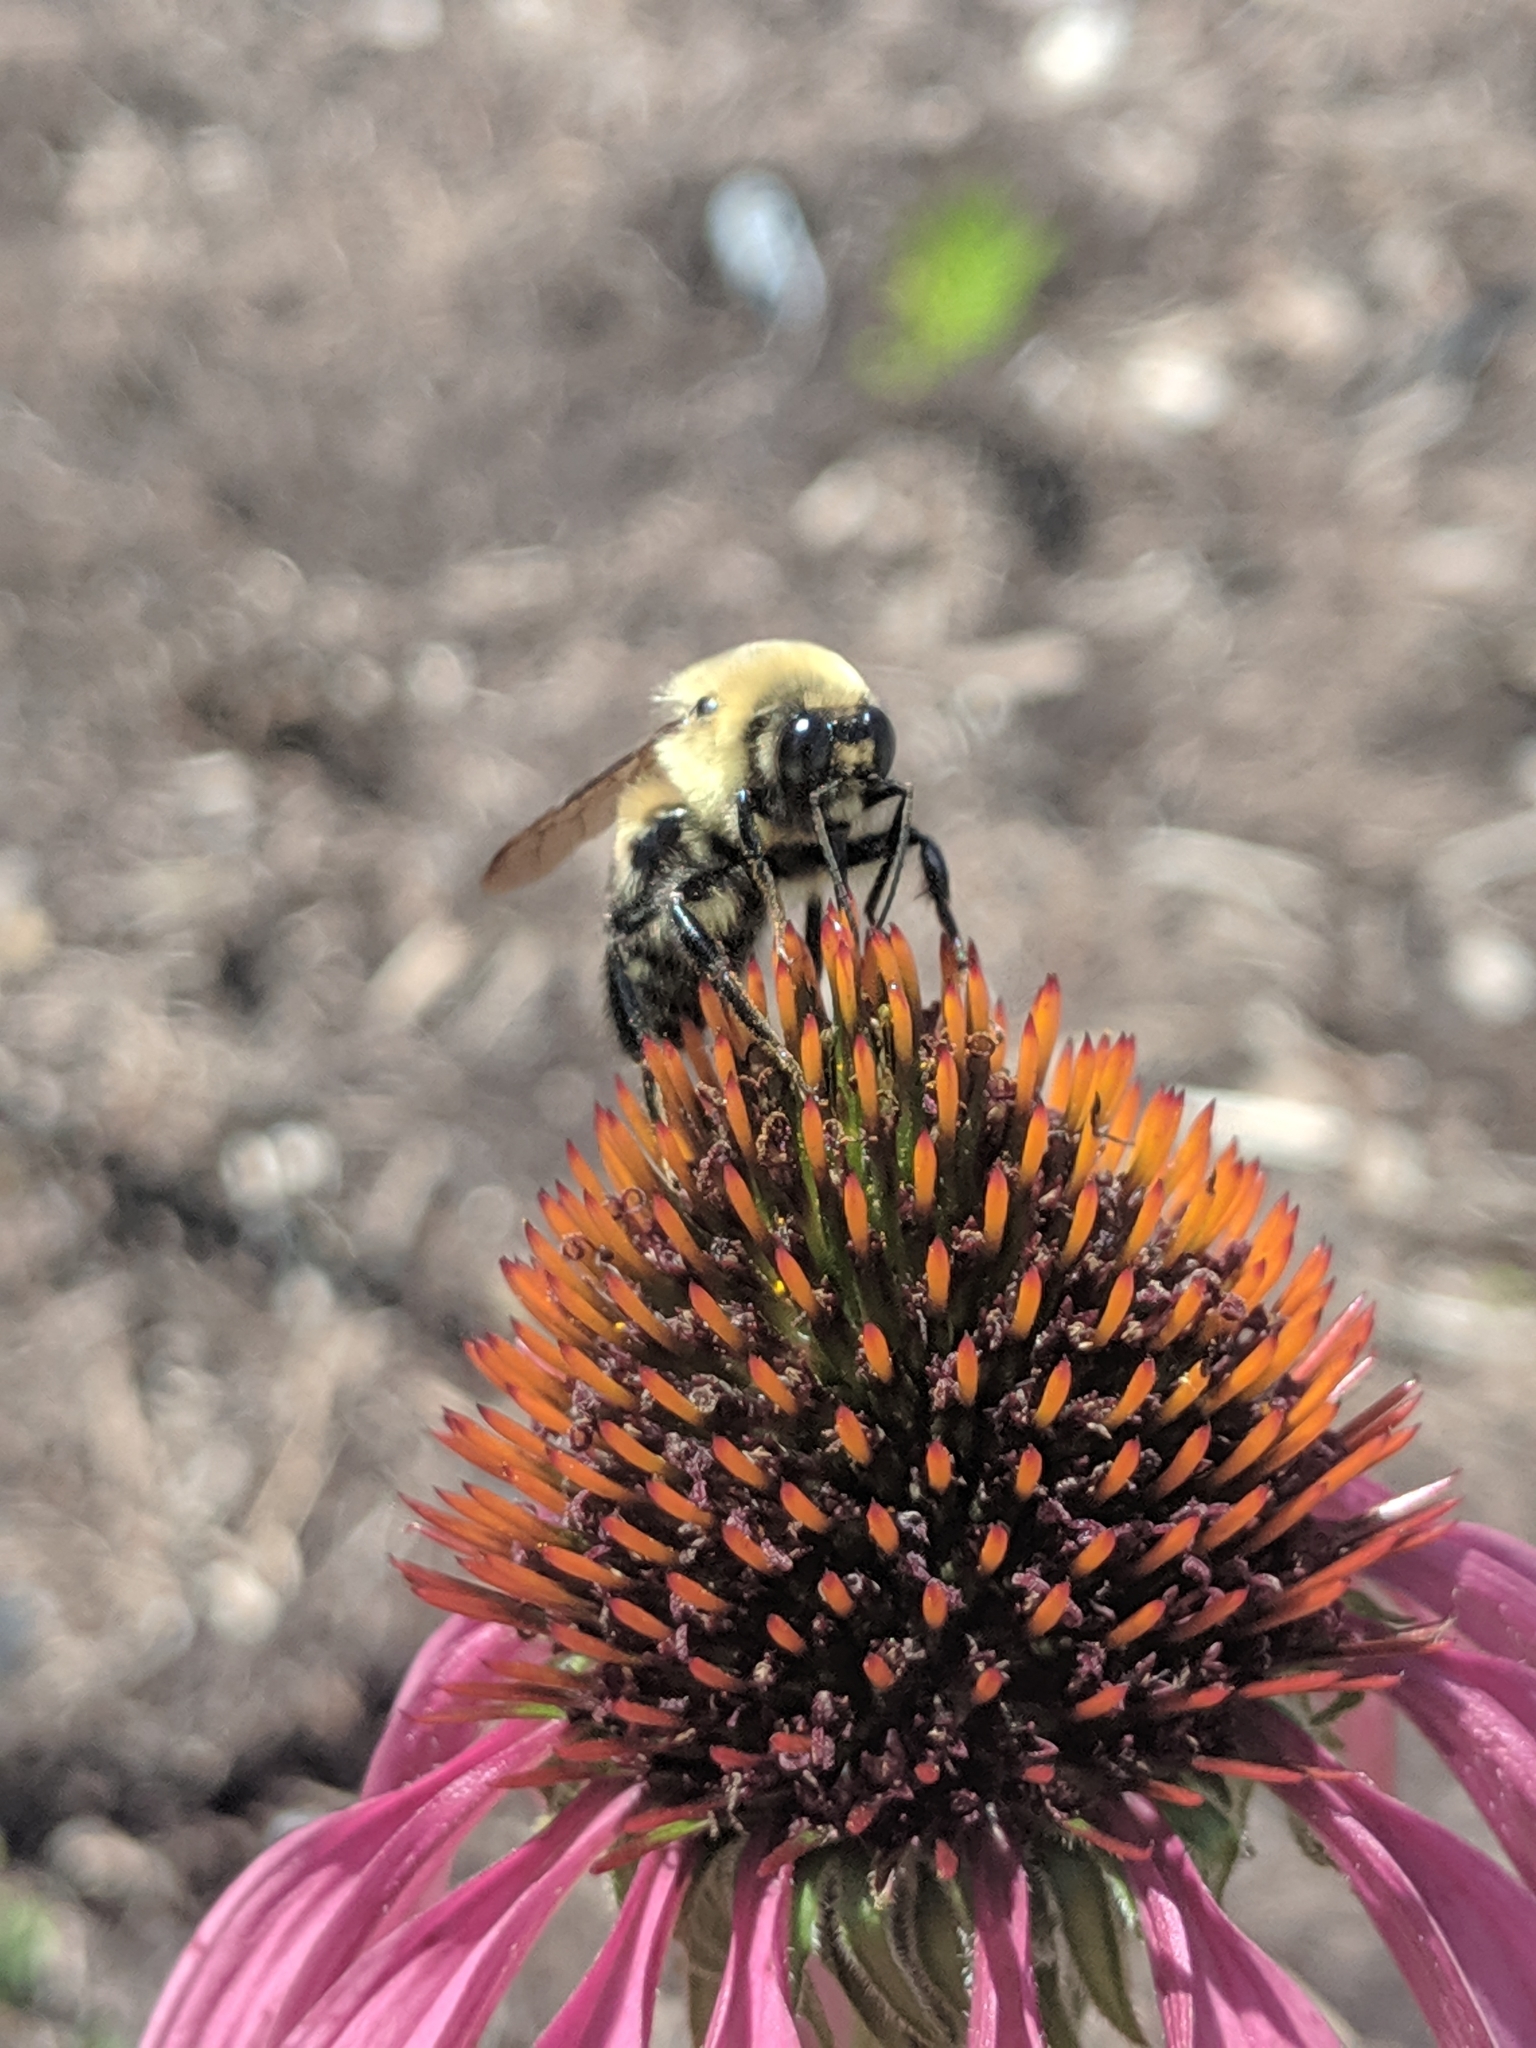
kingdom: Animalia
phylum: Arthropoda
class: Insecta
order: Hymenoptera
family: Apidae
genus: Bombus
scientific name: Bombus griseocollis
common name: Brown-belted bumble bee
